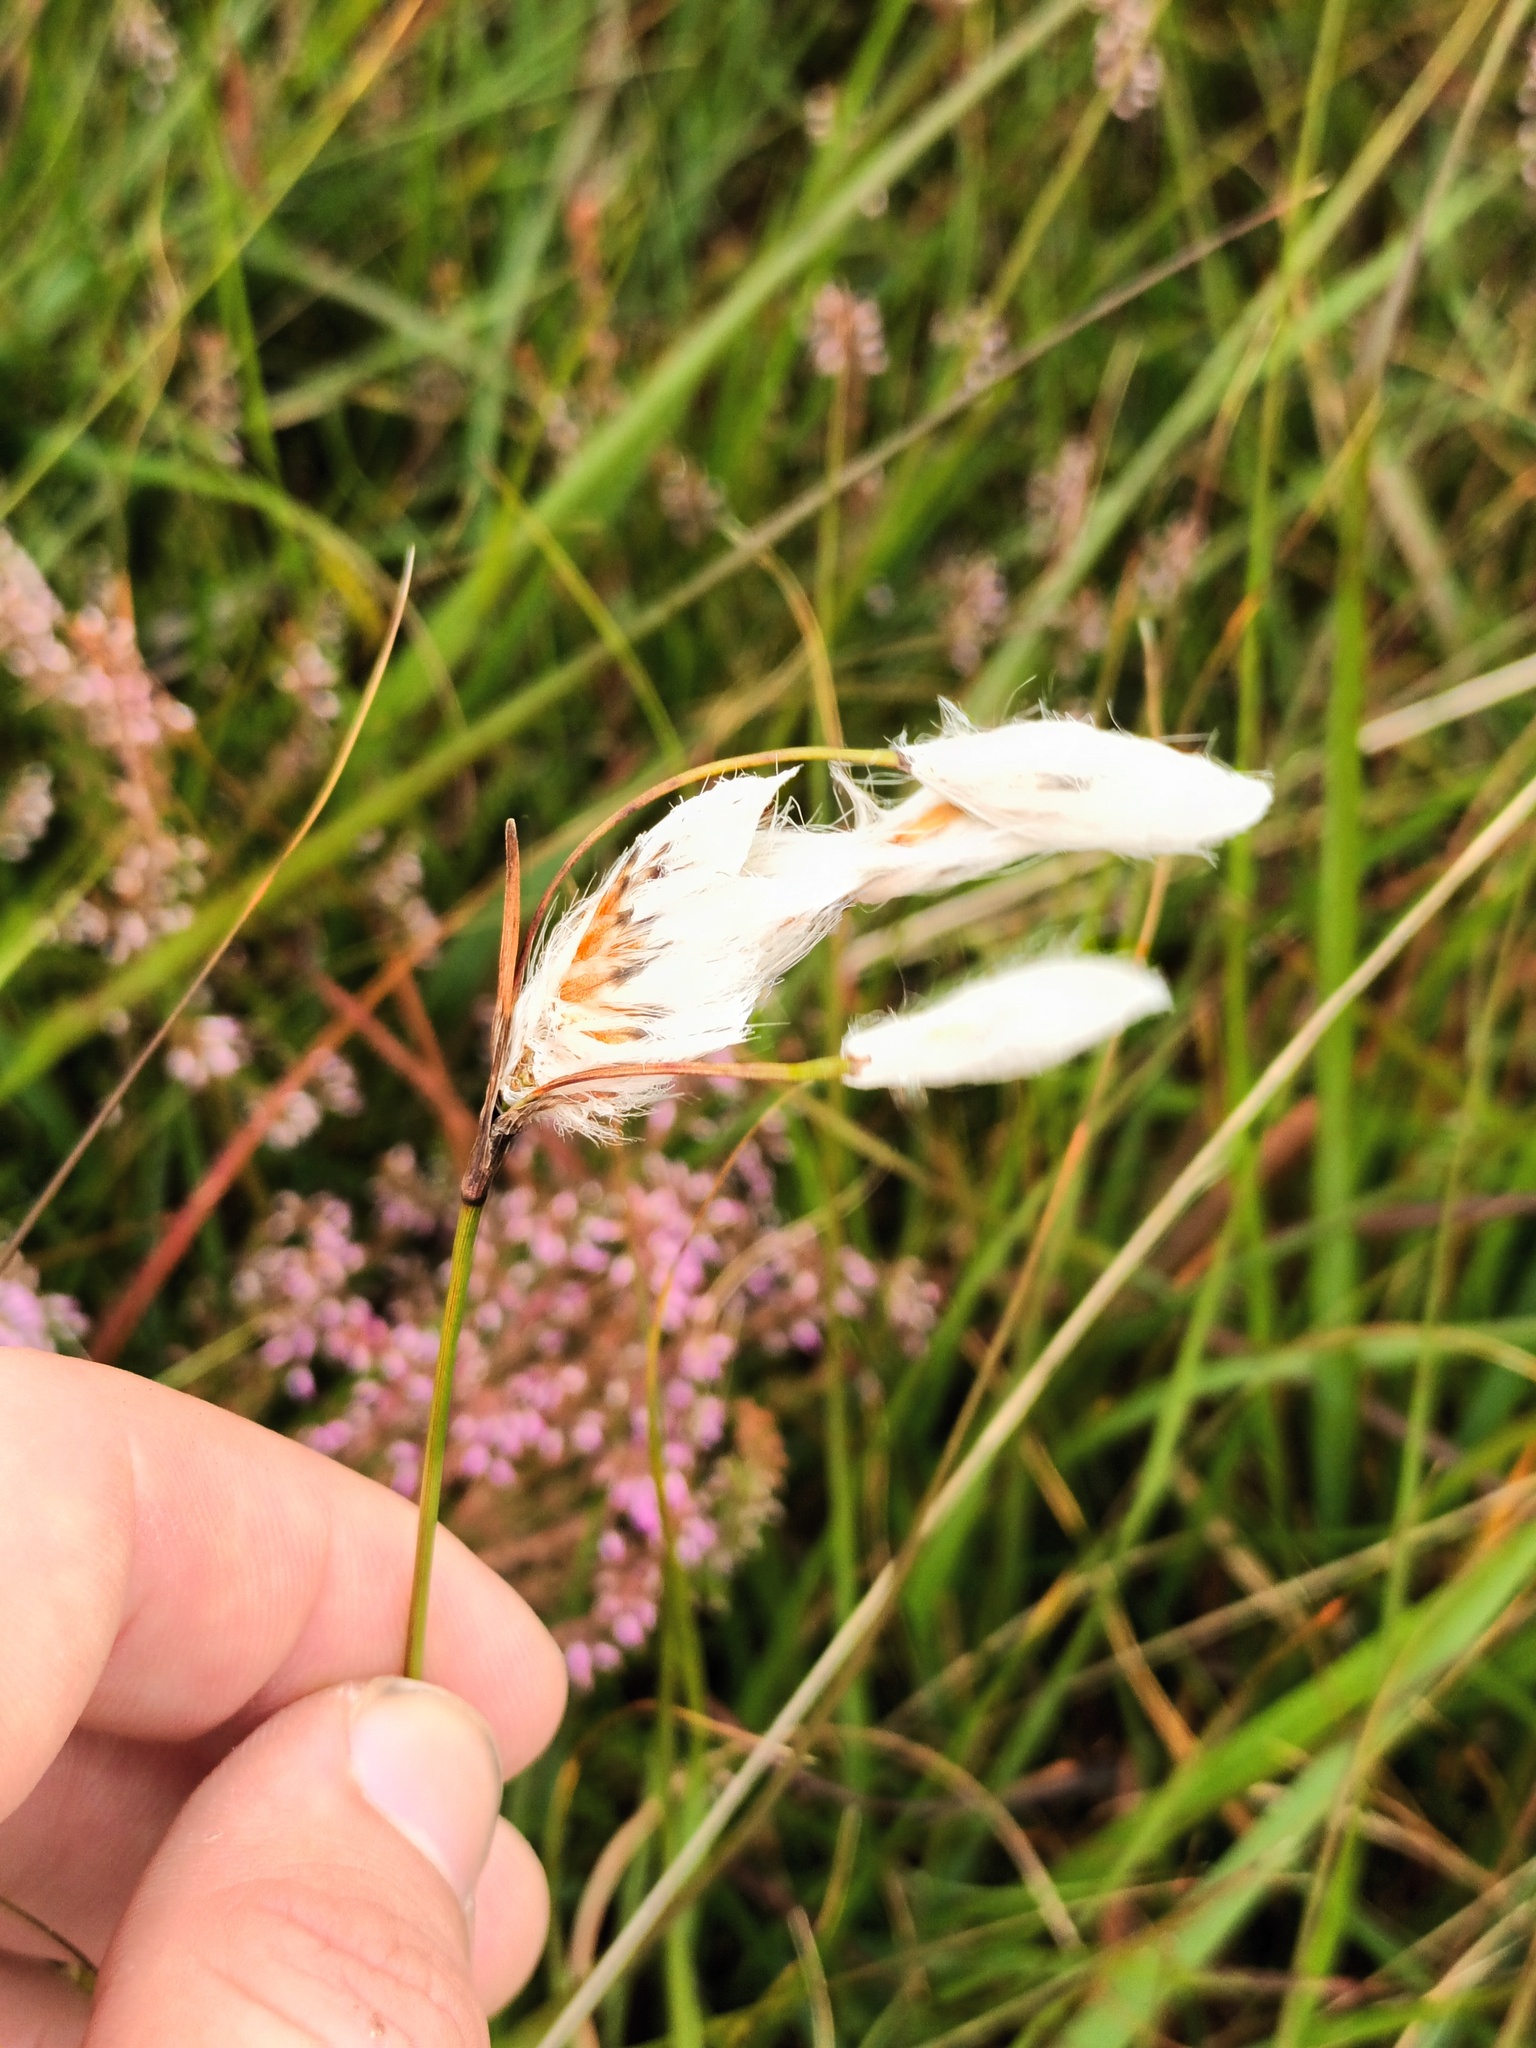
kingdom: Plantae
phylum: Tracheophyta
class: Liliopsida
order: Poales
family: Cyperaceae
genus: Eriophorum
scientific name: Eriophorum angustifolium
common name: Common cottongrass
